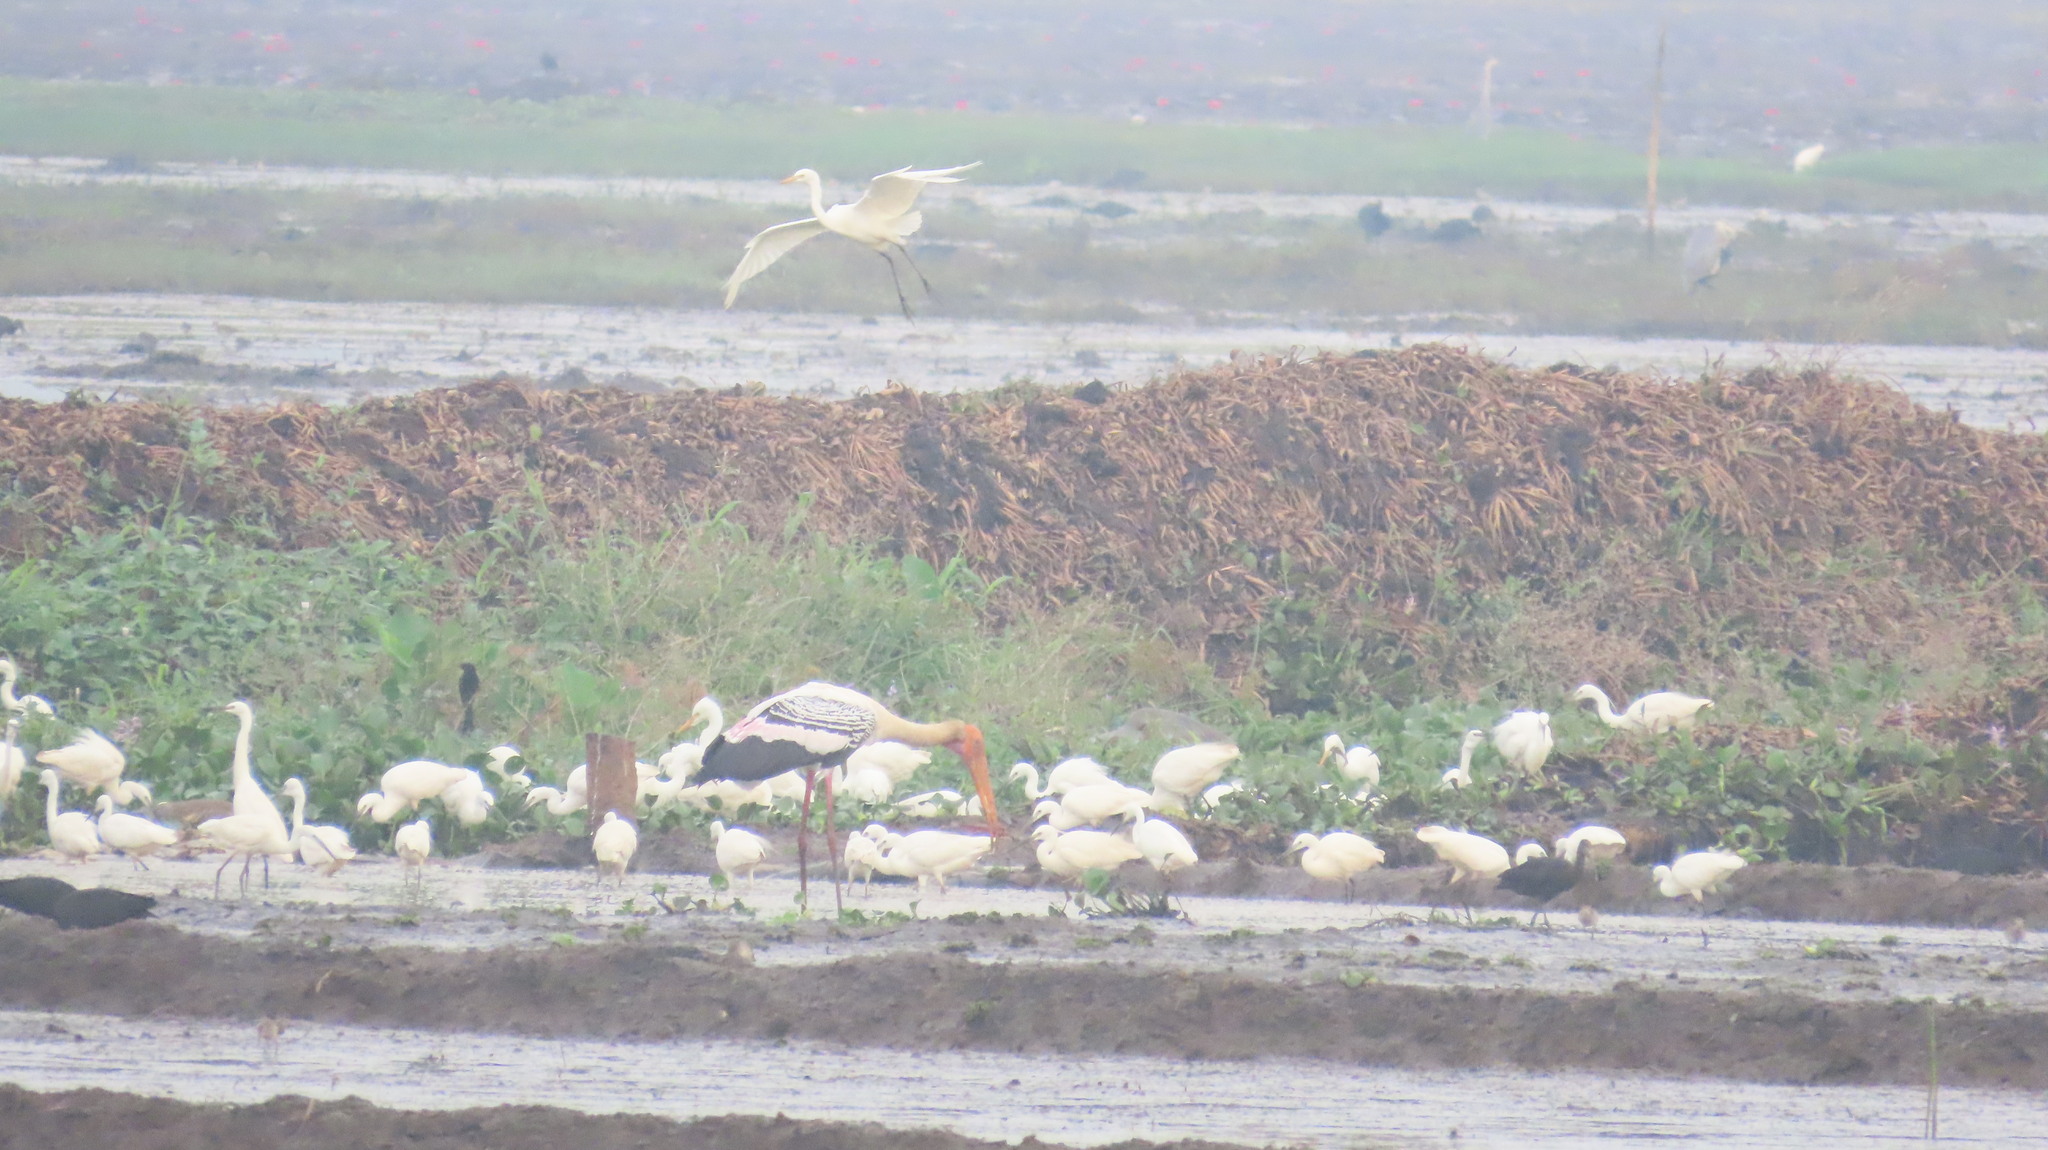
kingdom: Animalia
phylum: Chordata
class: Aves
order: Ciconiiformes
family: Ciconiidae
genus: Mycteria
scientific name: Mycteria leucocephala
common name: Painted stork
